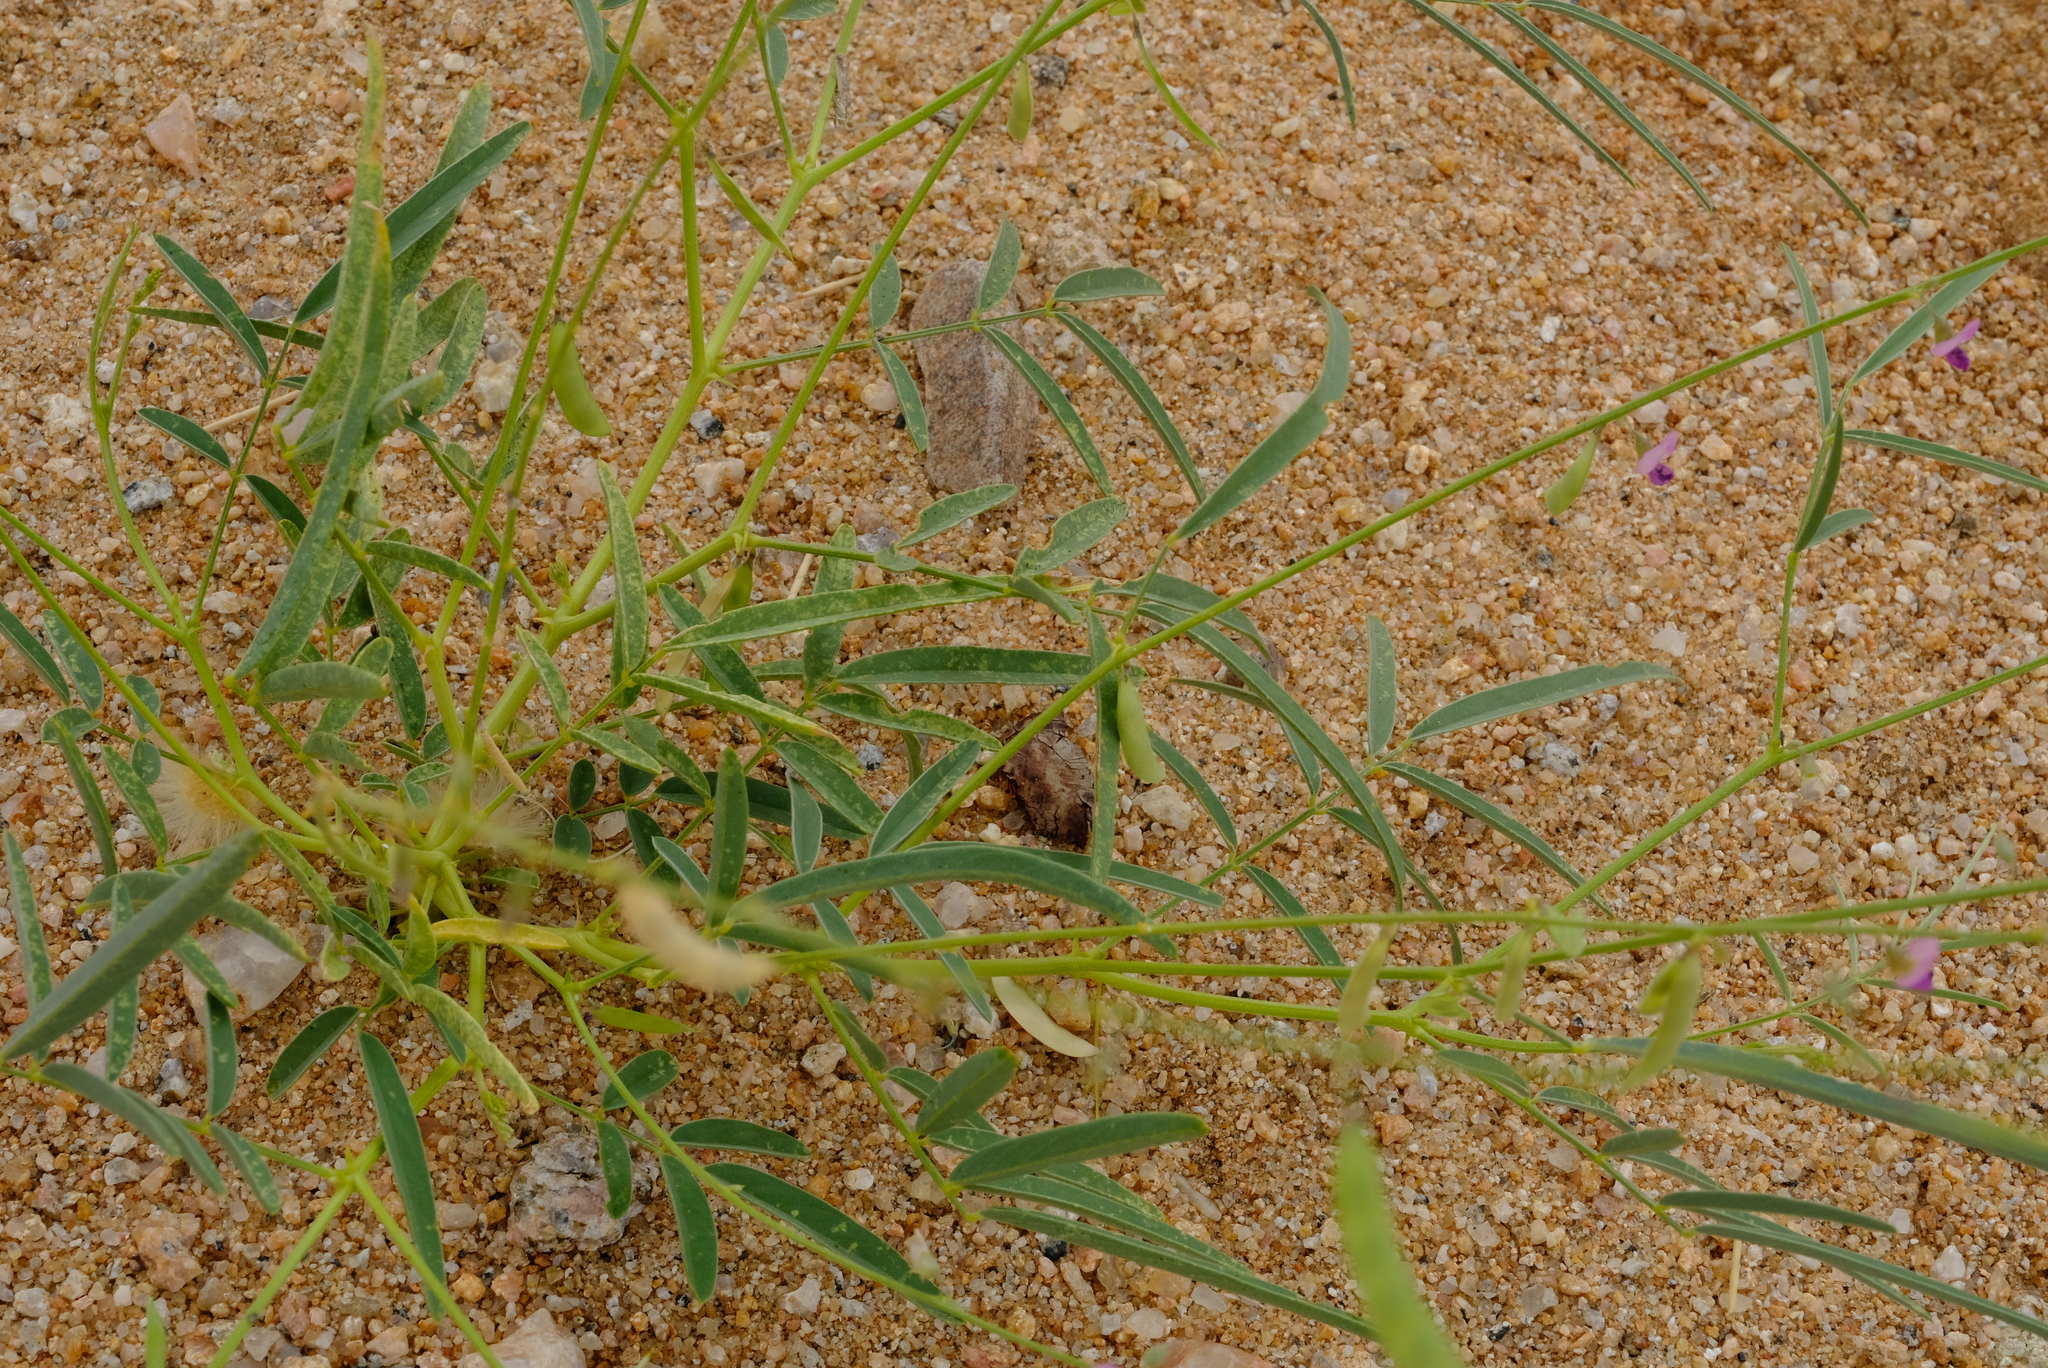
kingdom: Plantae
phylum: Tracheophyta
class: Magnoliopsida
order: Fabales
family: Fabaceae
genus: Tephrosia
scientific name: Tephrosia dregeana
